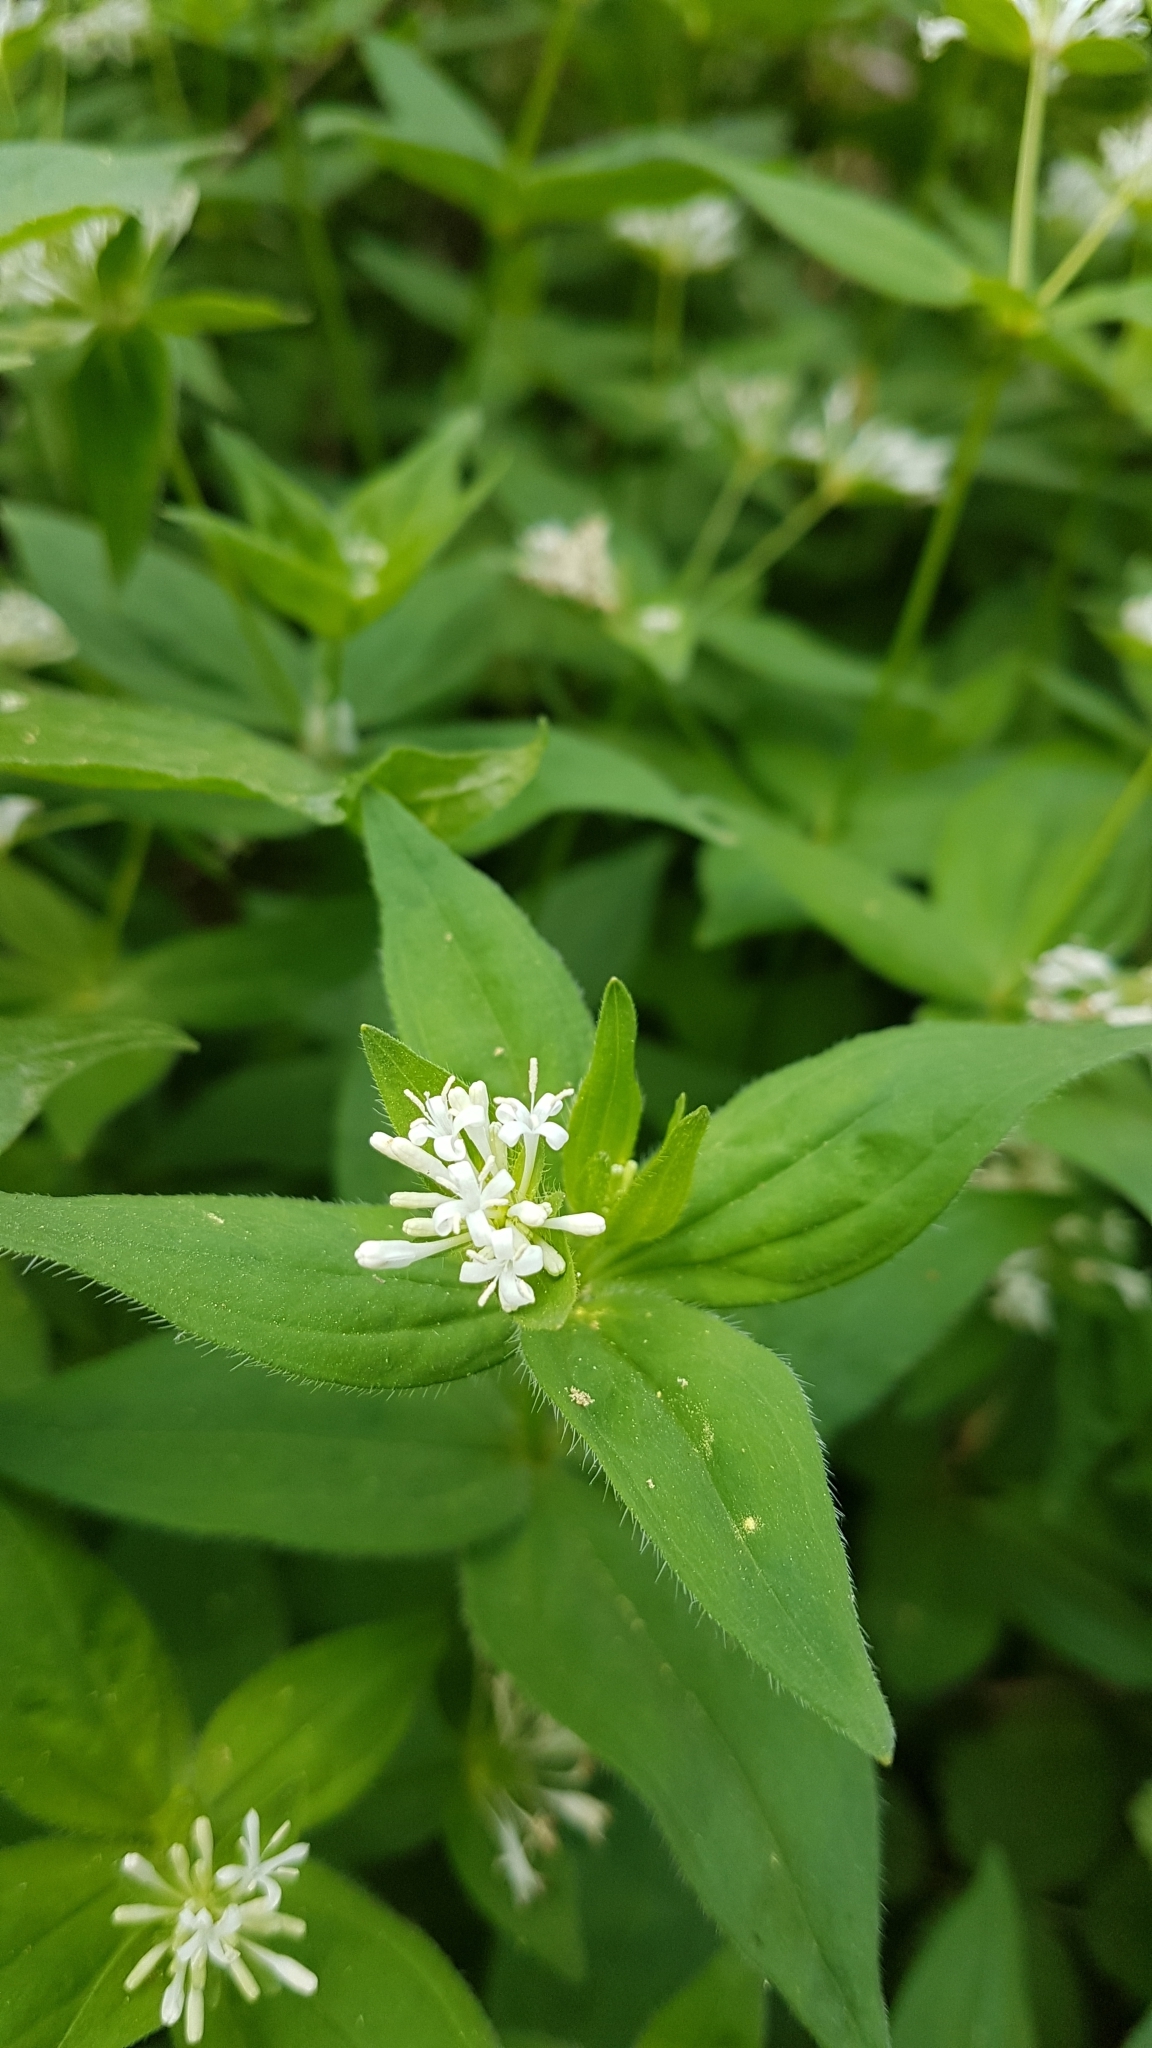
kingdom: Plantae
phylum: Tracheophyta
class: Magnoliopsida
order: Gentianales
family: Rubiaceae
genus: Asperula
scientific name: Asperula taurina
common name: Pink woodruff
